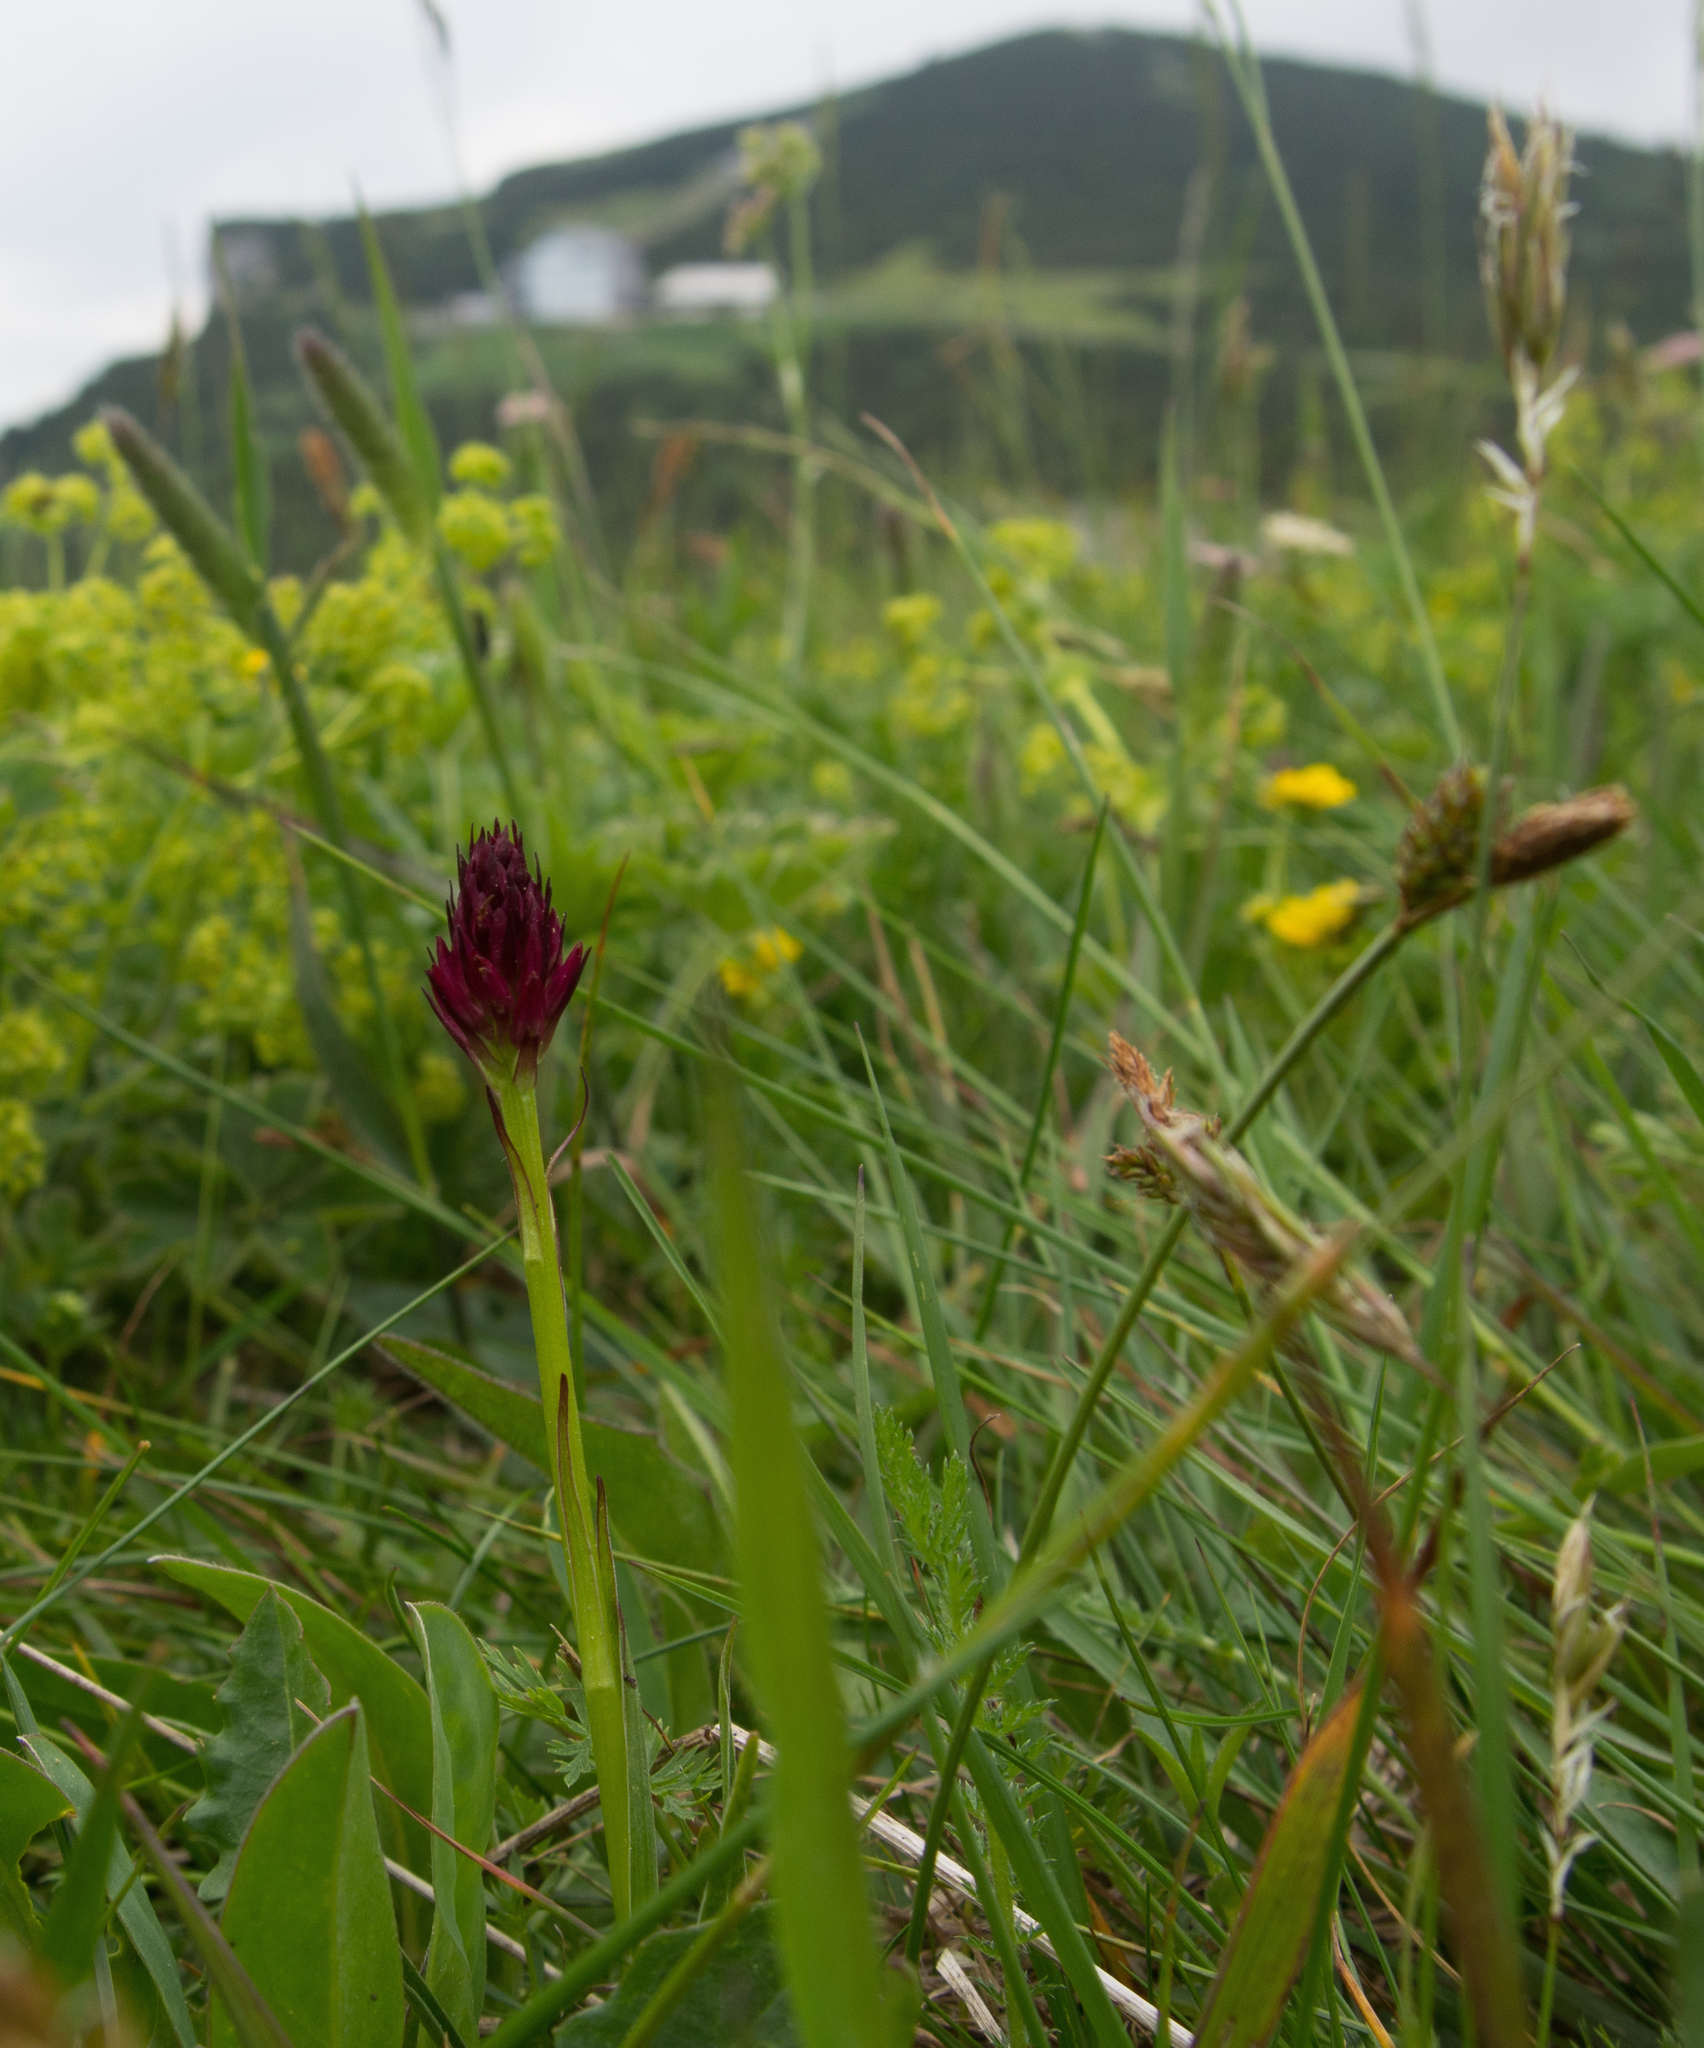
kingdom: Plantae
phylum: Tracheophyta
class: Liliopsida
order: Asparagales
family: Orchidaceae
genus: Gymnadenia
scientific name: Gymnadenia miniata
